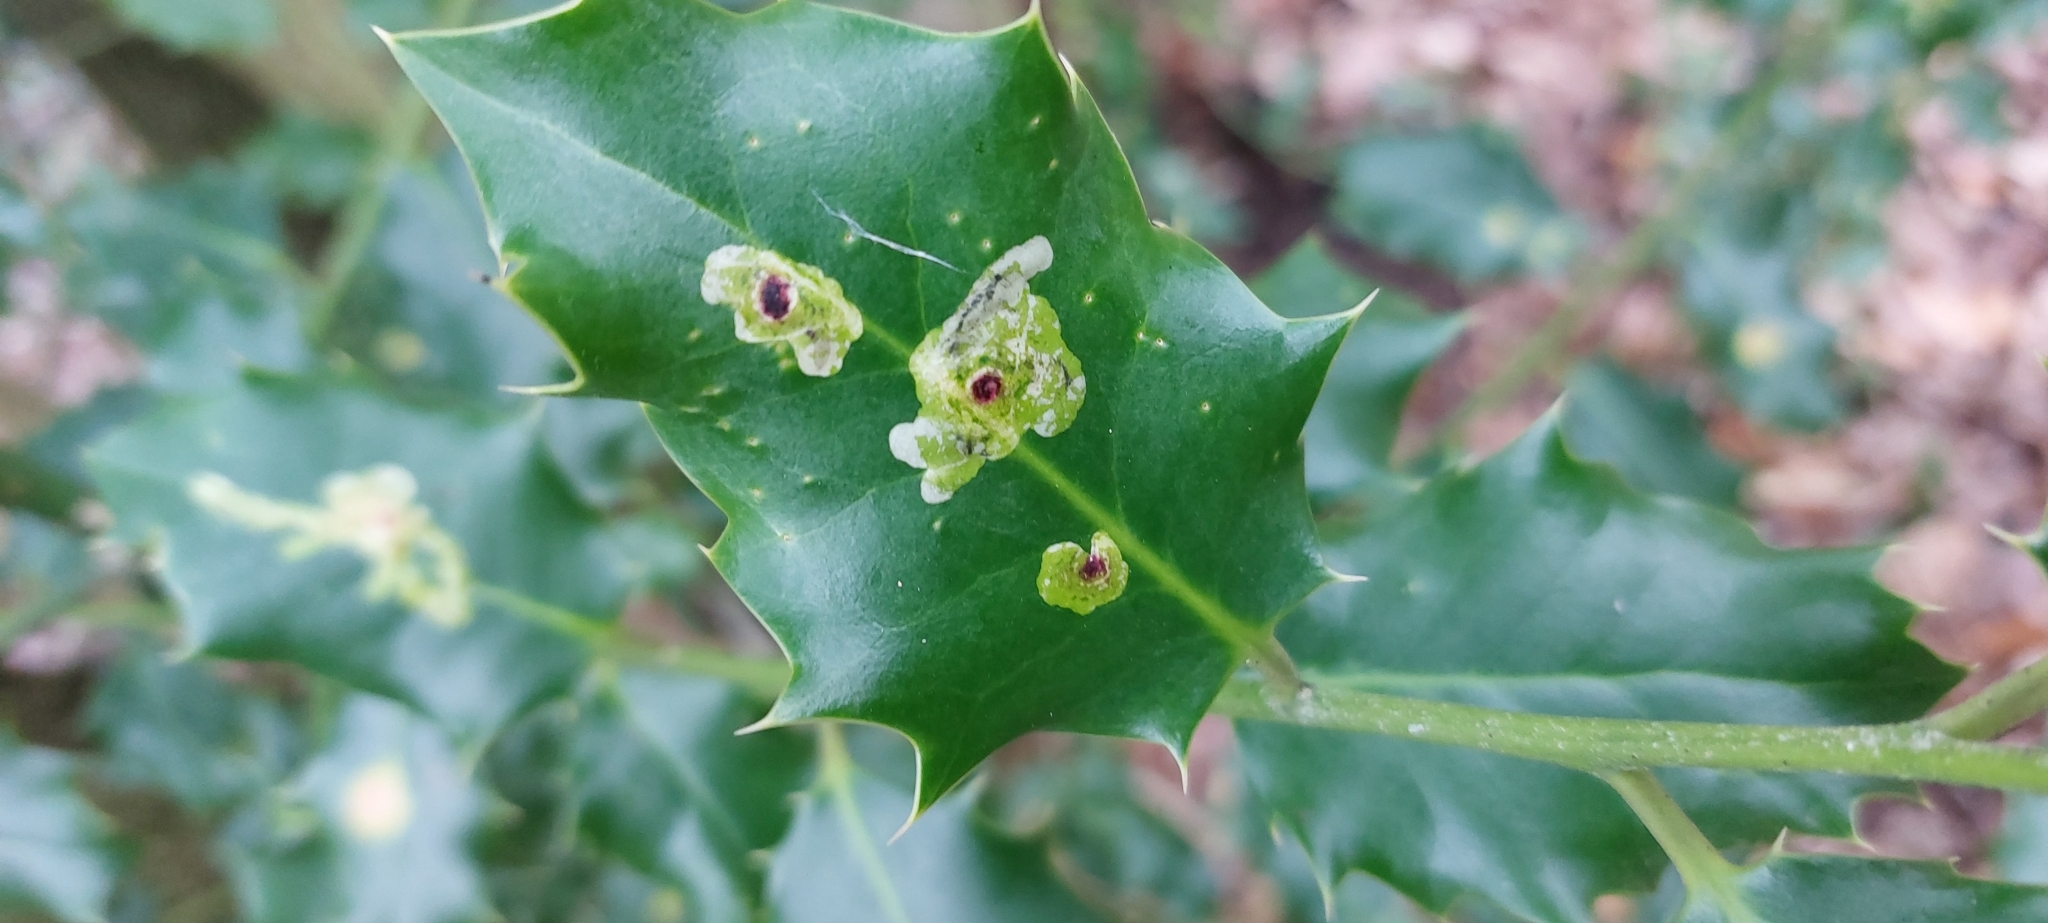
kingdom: Animalia
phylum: Arthropoda
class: Insecta
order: Diptera
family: Agromyzidae
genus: Phytomyza
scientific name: Phytomyza ilicis
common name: Holly leafminer
